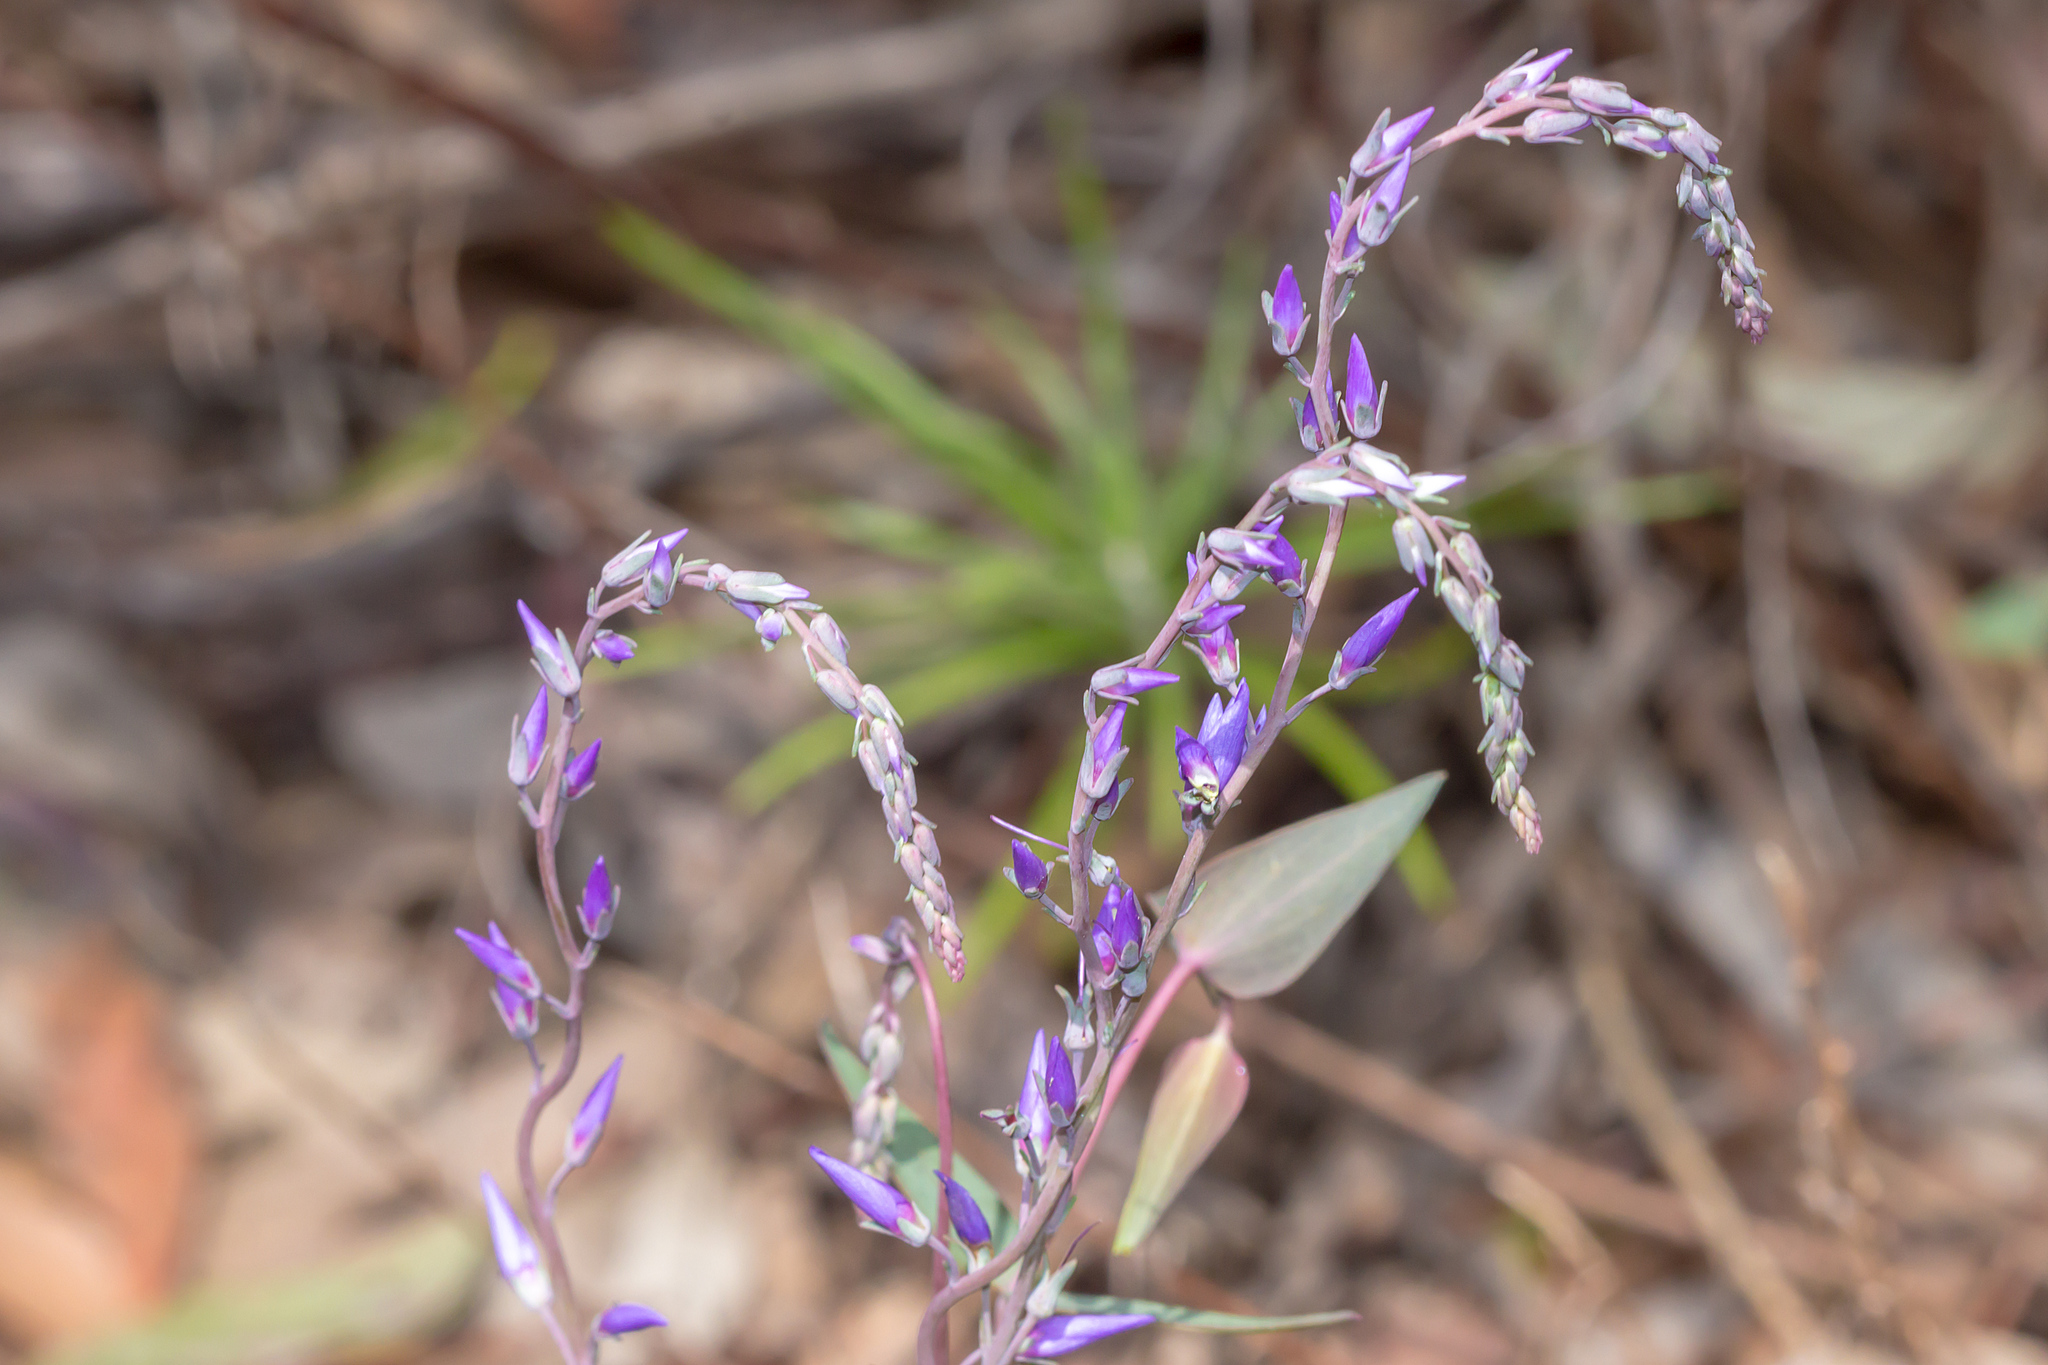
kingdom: Plantae
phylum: Tracheophyta
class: Magnoliopsida
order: Lamiales
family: Plantaginaceae
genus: Veronica
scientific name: Veronica perfoliata
